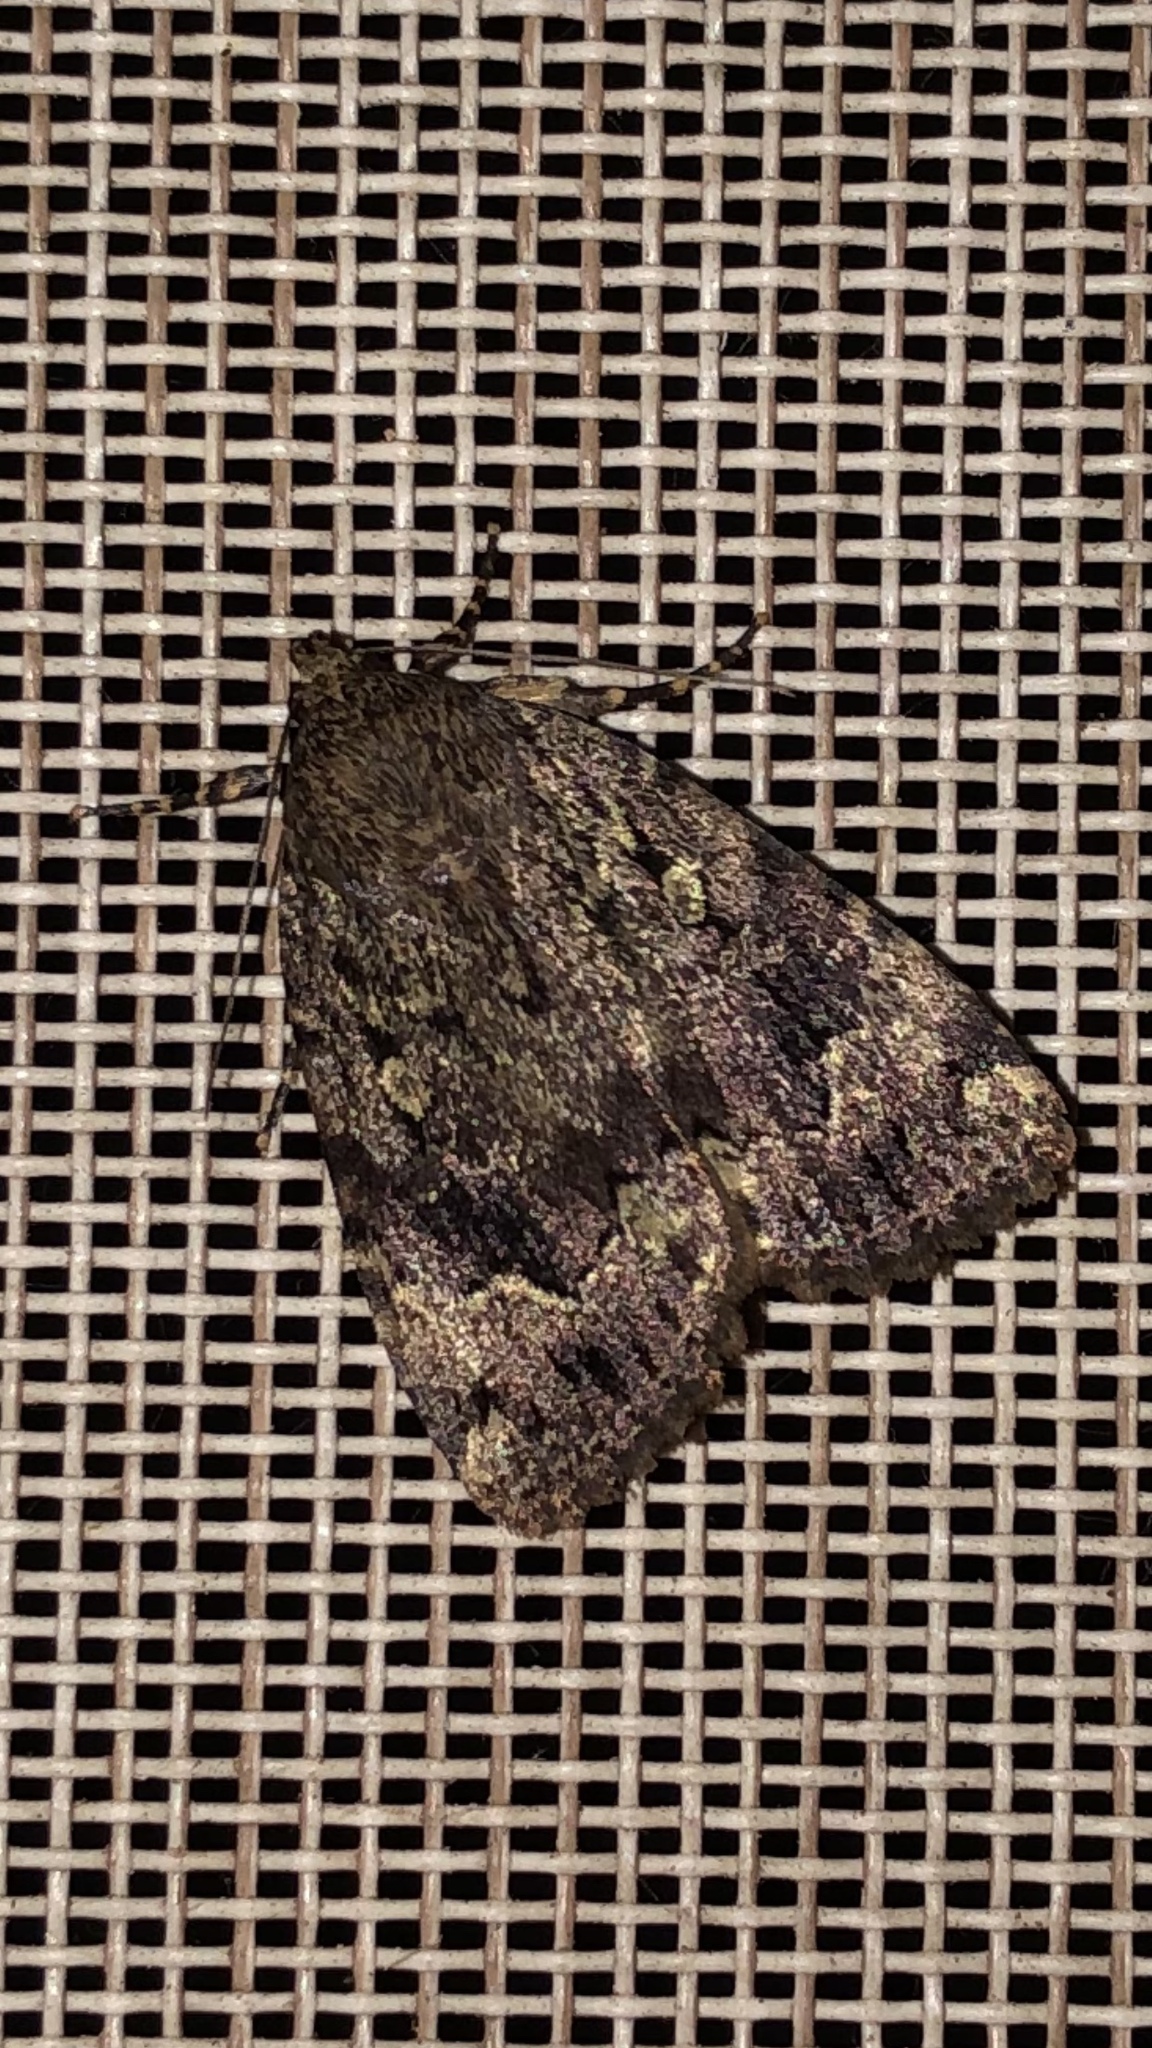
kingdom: Animalia
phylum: Arthropoda
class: Insecta
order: Lepidoptera
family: Noctuidae
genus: Amphipyra
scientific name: Amphipyra pyramidoides
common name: American copper underwing
